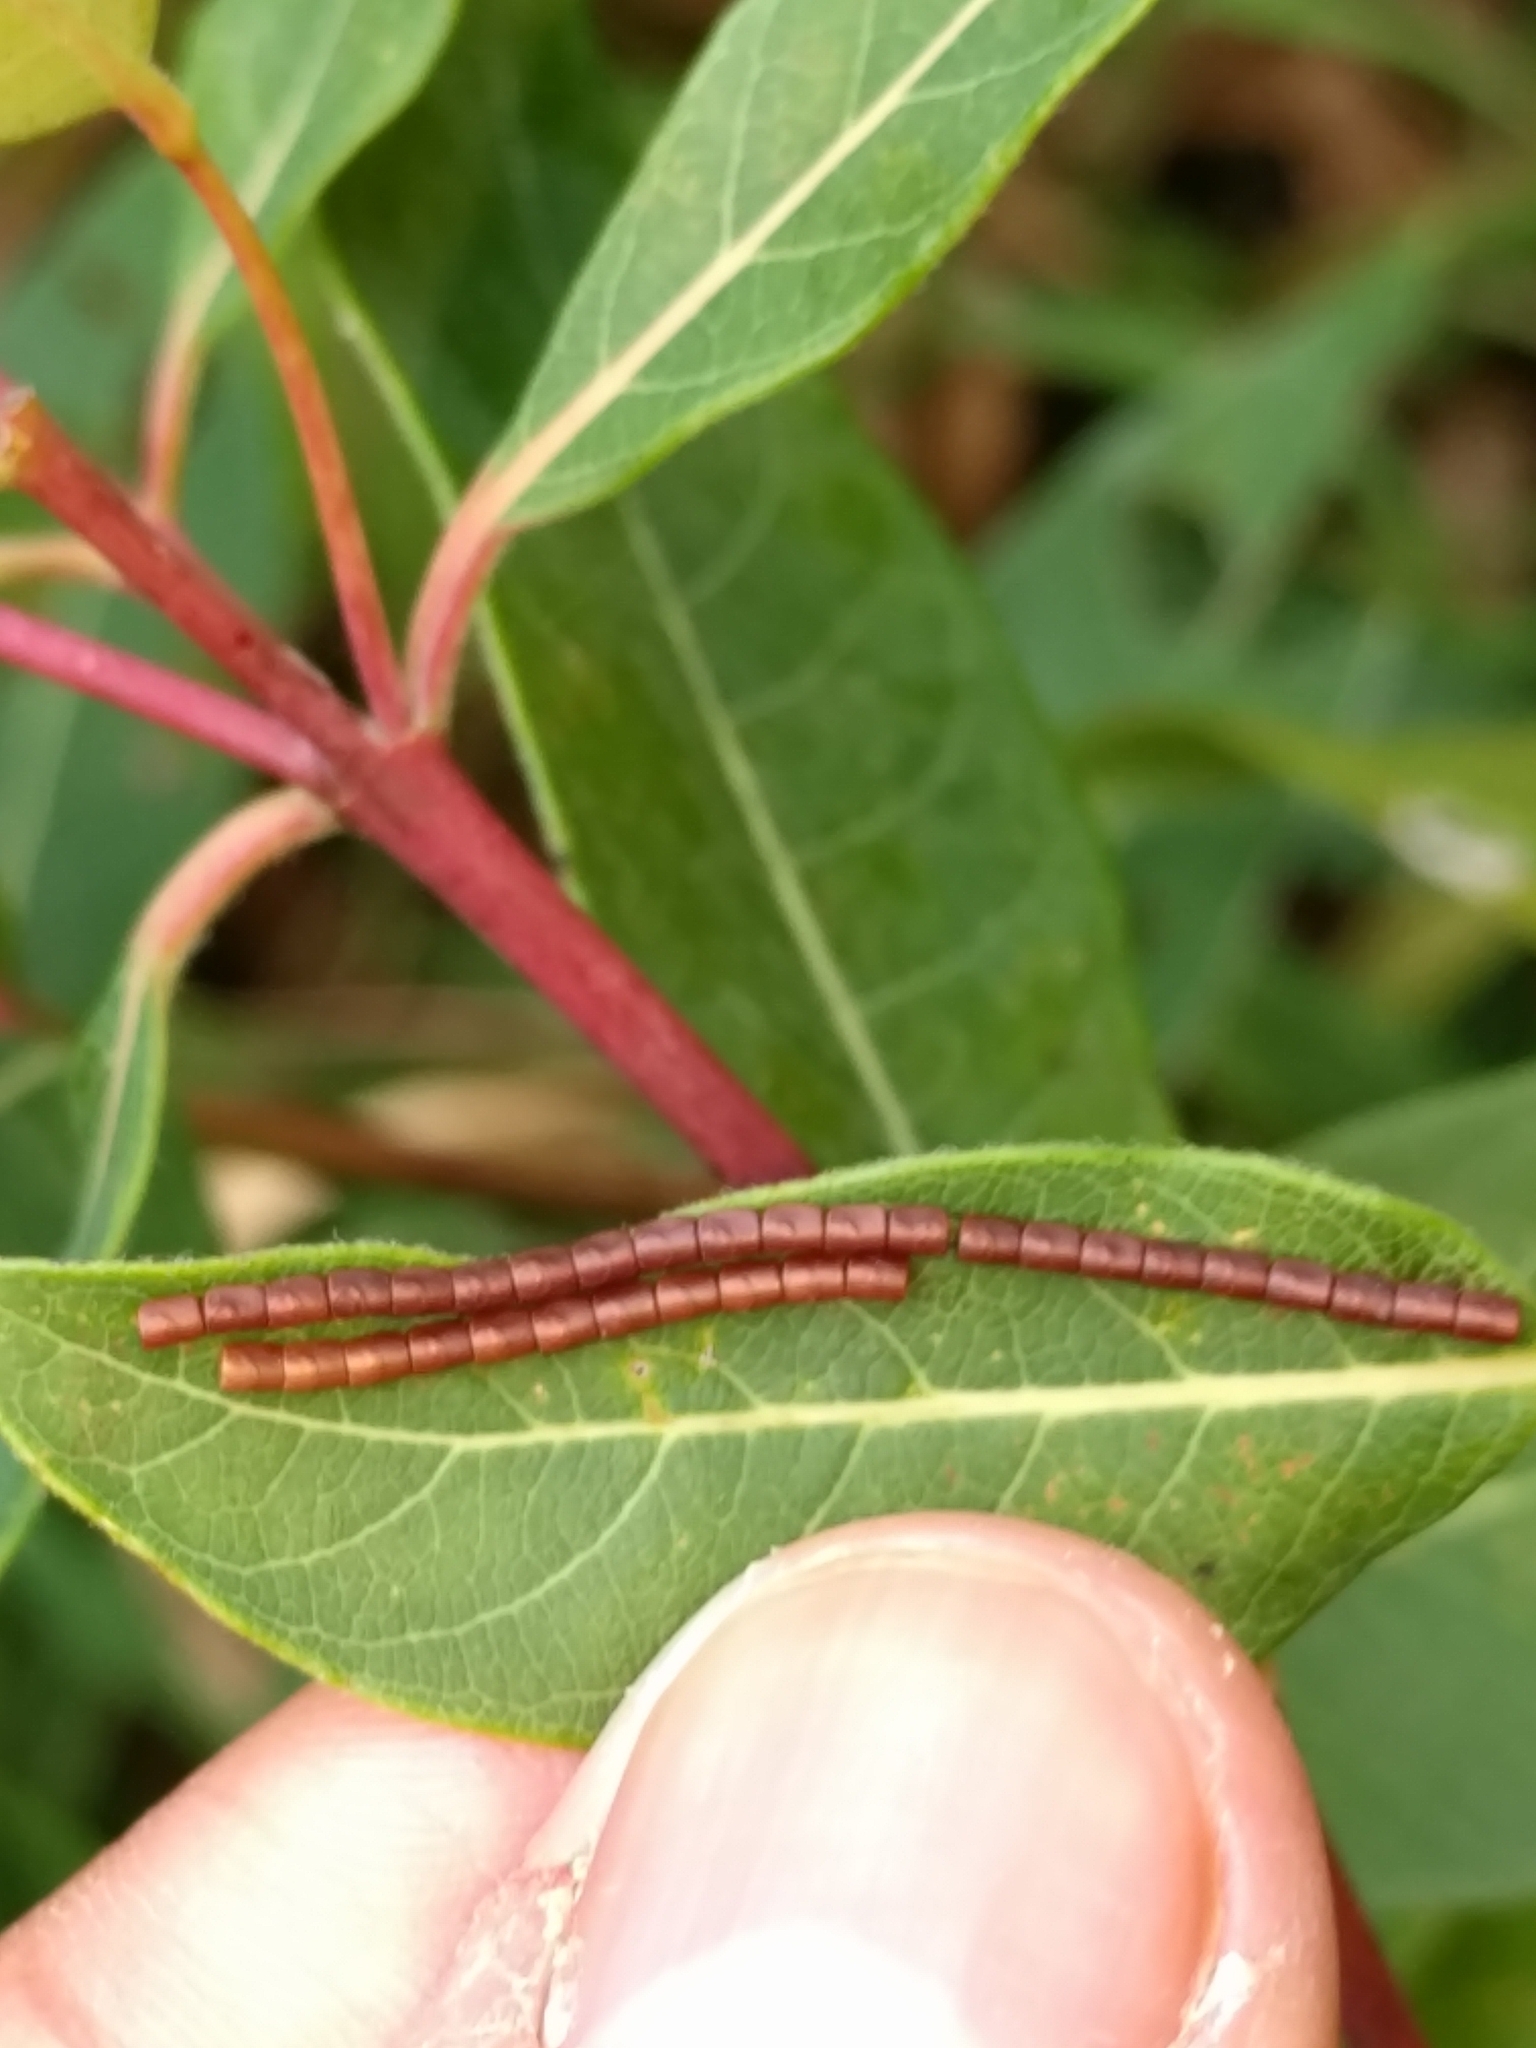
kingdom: Animalia
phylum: Arthropoda
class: Insecta
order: Hemiptera
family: Coreidae
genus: Leptoglossus
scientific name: Leptoglossus
